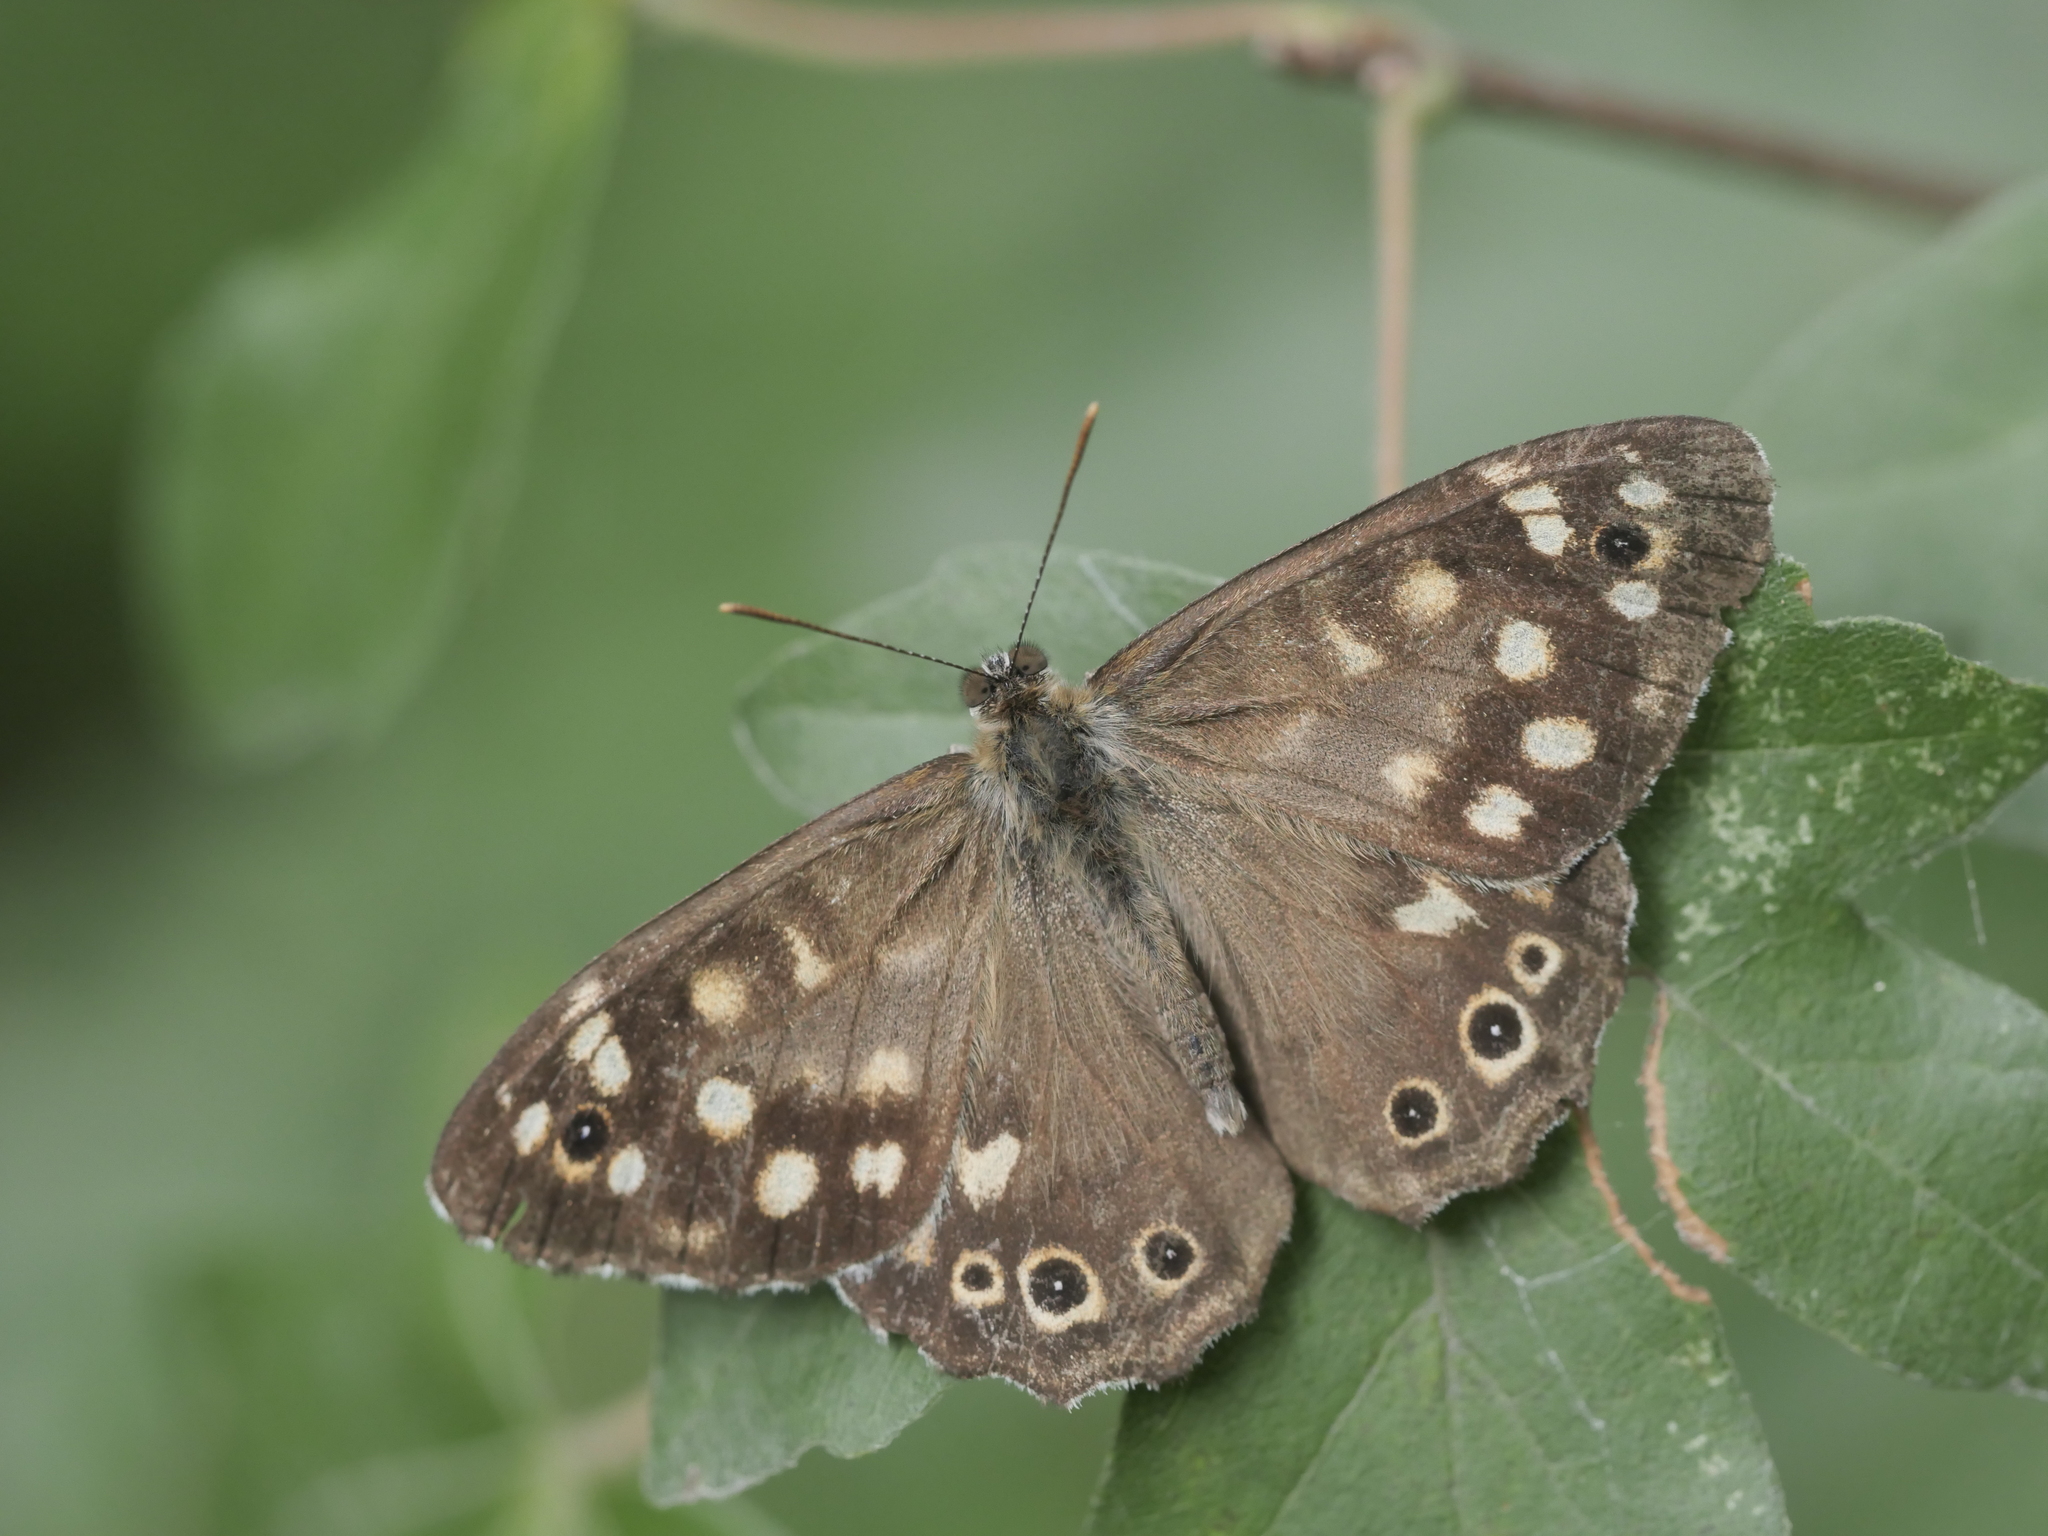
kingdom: Animalia
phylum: Arthropoda
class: Insecta
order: Lepidoptera
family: Nymphalidae
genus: Pararge
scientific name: Pararge aegeria
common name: Speckled wood
